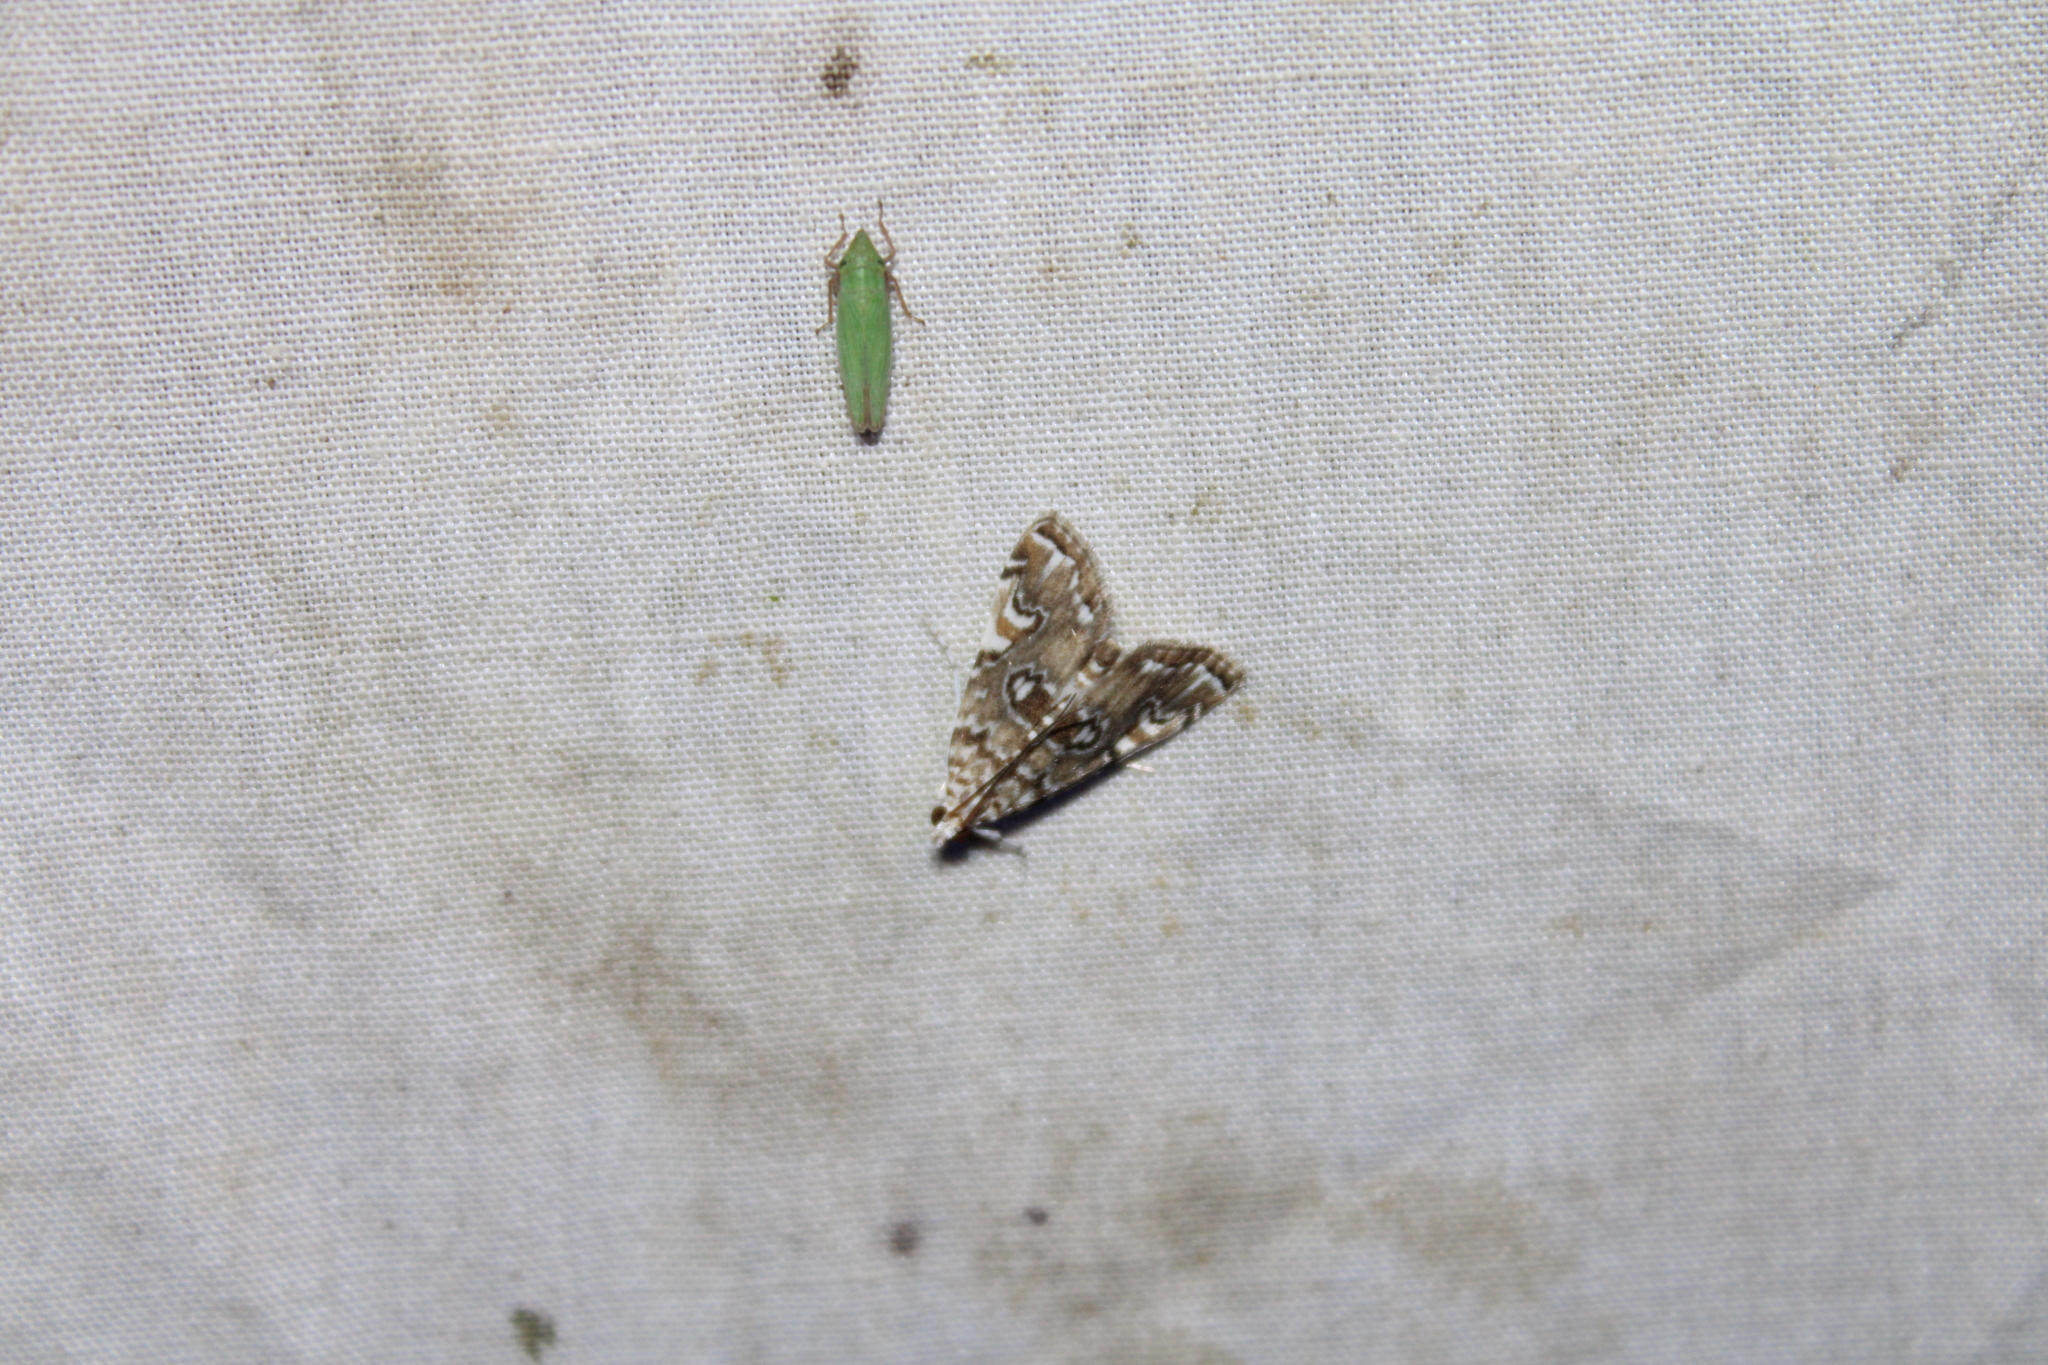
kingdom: Animalia
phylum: Arthropoda
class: Insecta
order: Lepidoptera
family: Crambidae
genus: Elophila
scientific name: Elophila gyralis
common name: Waterlily borer moth
